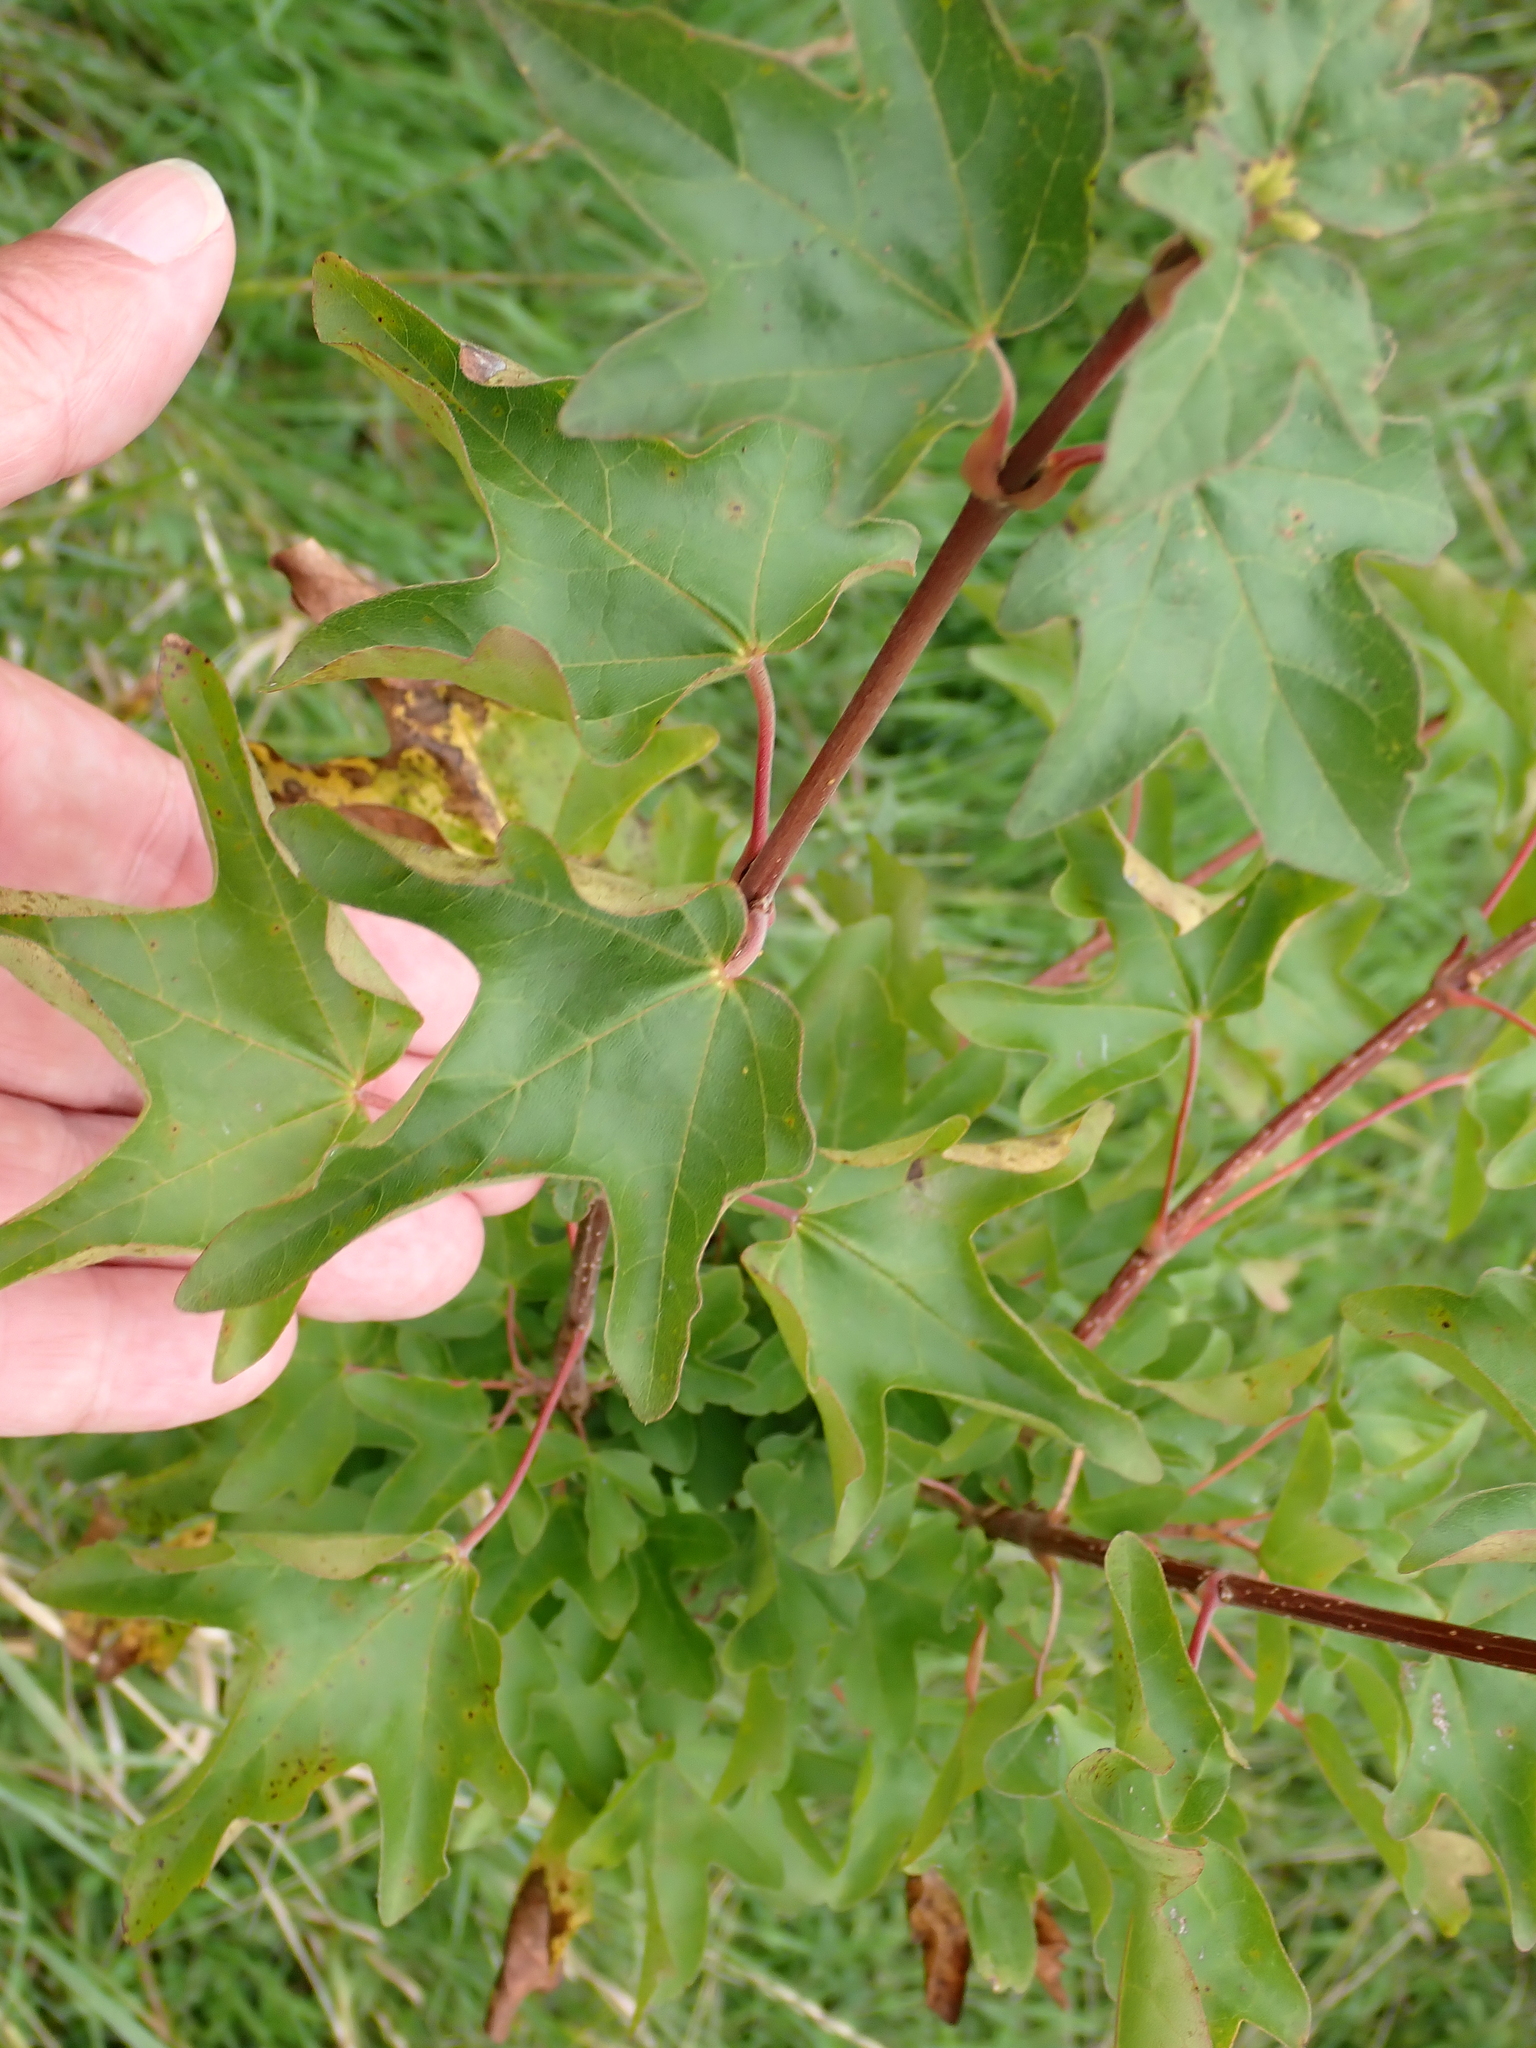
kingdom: Plantae
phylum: Tracheophyta
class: Magnoliopsida
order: Sapindales
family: Sapindaceae
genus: Acer
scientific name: Acer campestre
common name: Field maple
